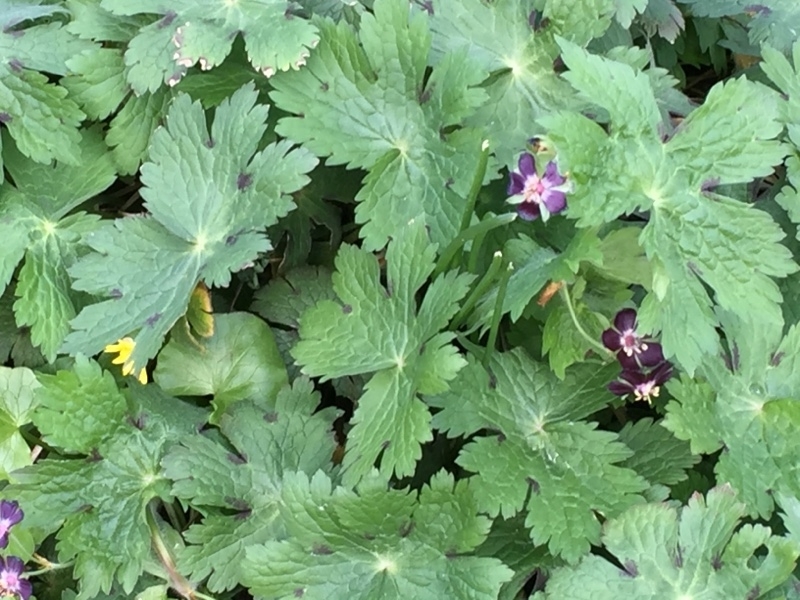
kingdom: Plantae
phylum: Tracheophyta
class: Magnoliopsida
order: Geraniales
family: Geraniaceae
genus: Geranium
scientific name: Geranium phaeum
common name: Dusky crane's-bill
